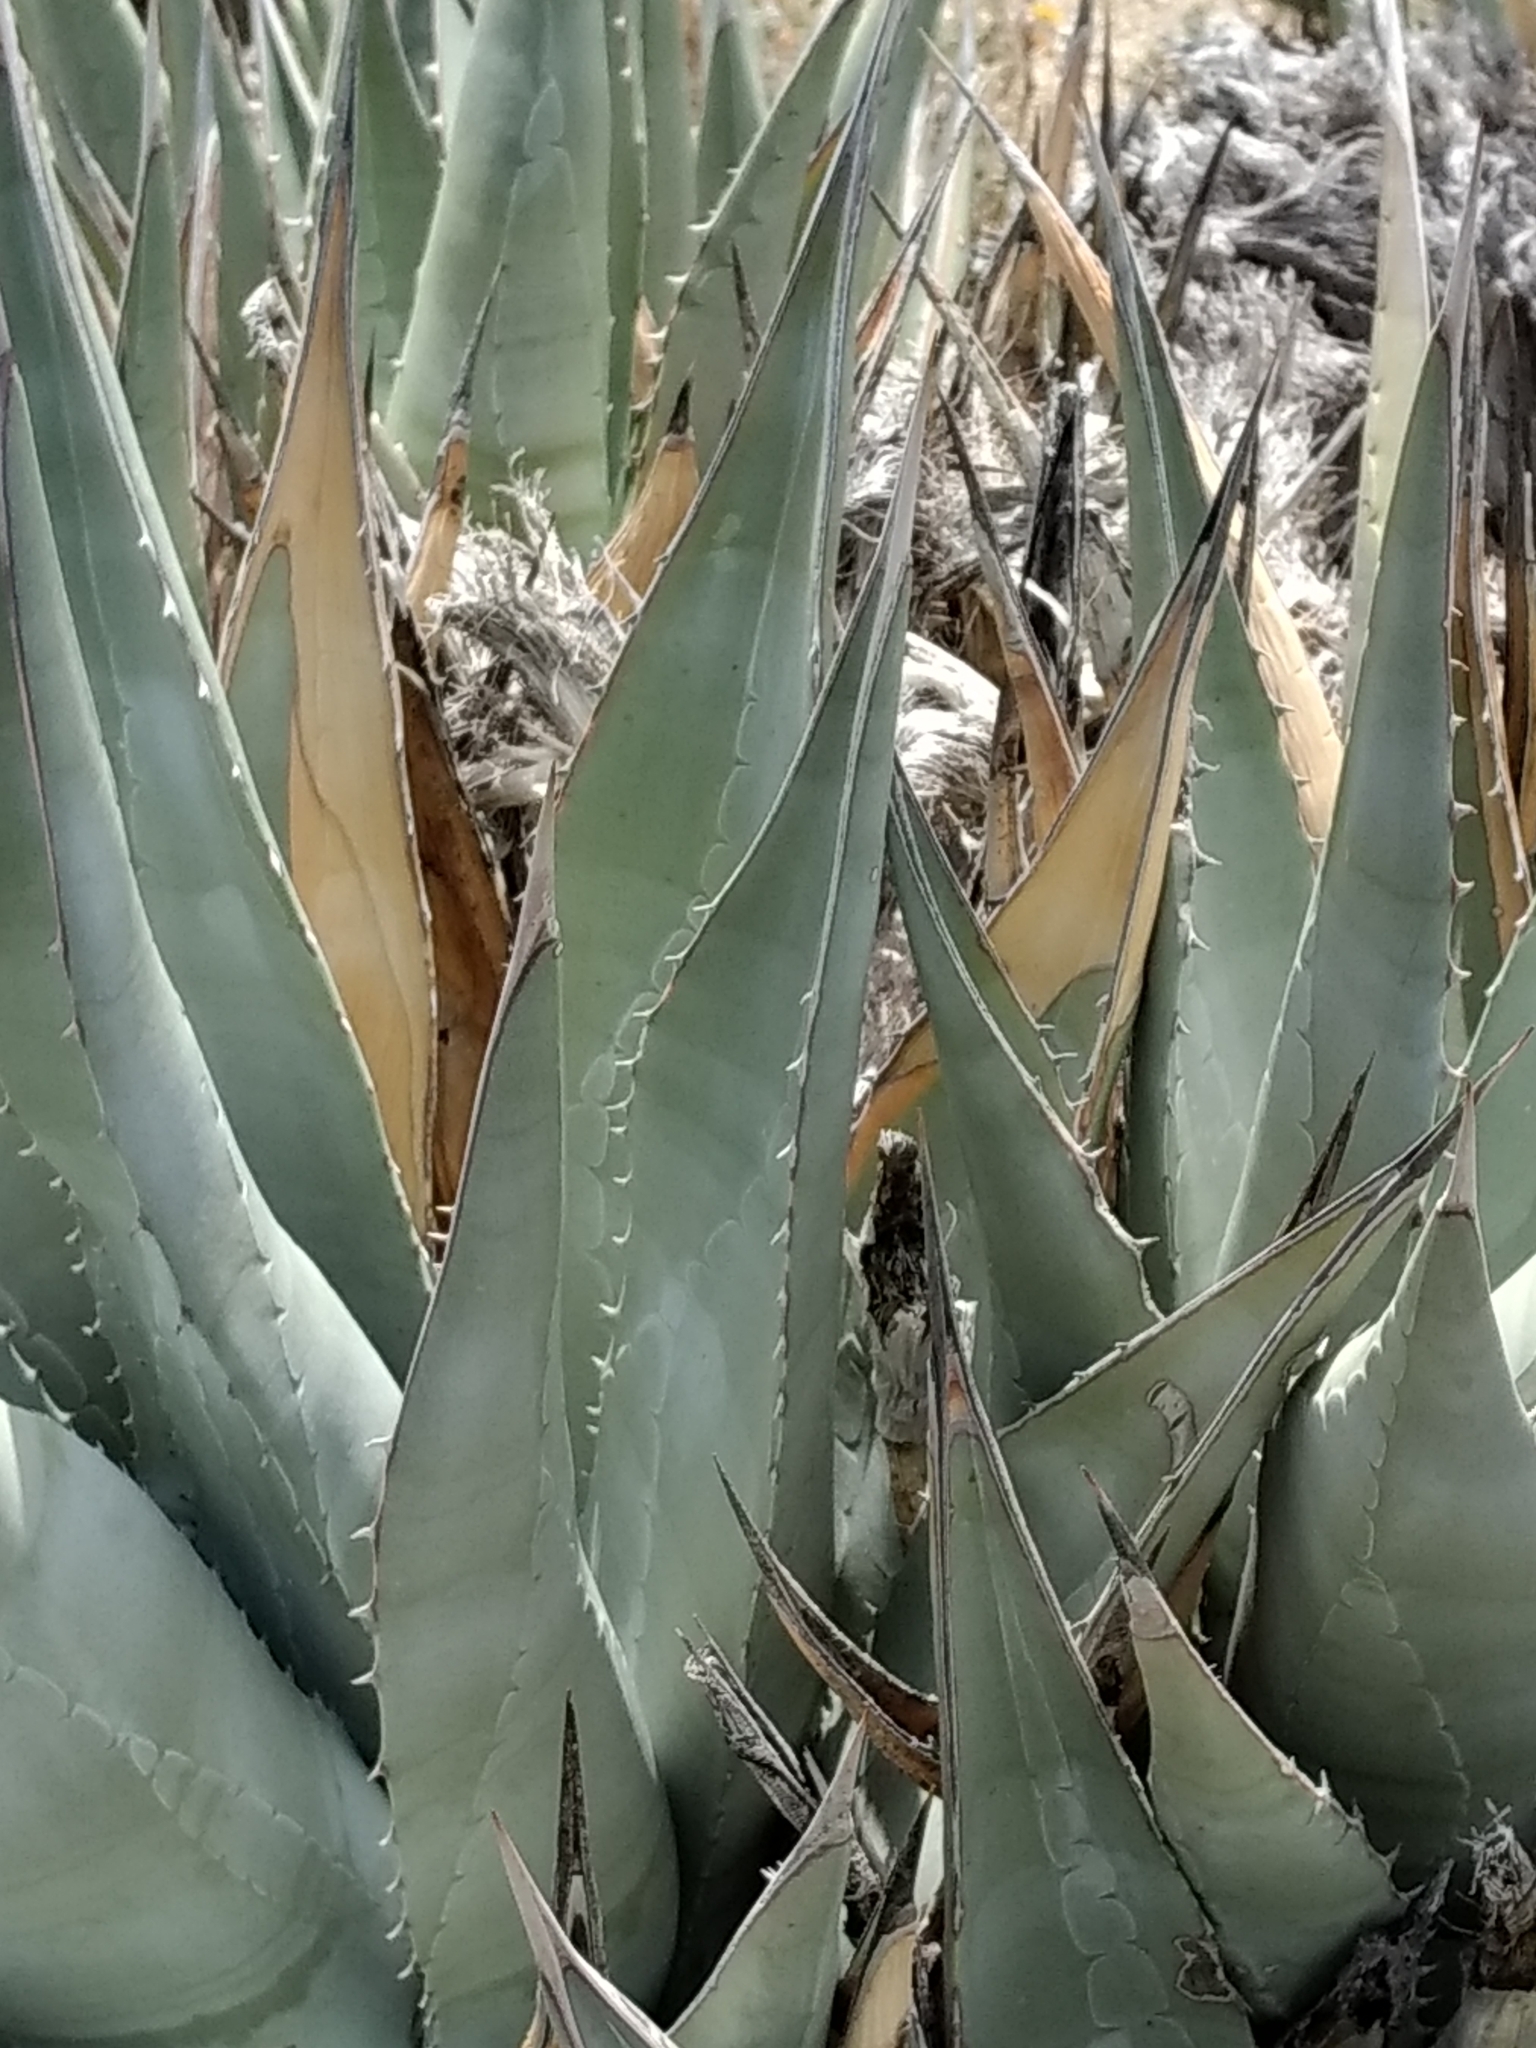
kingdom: Plantae
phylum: Tracheophyta
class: Liliopsida
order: Asparagales
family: Asparagaceae
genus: Agave
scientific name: Agave deserti
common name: Desert agave
